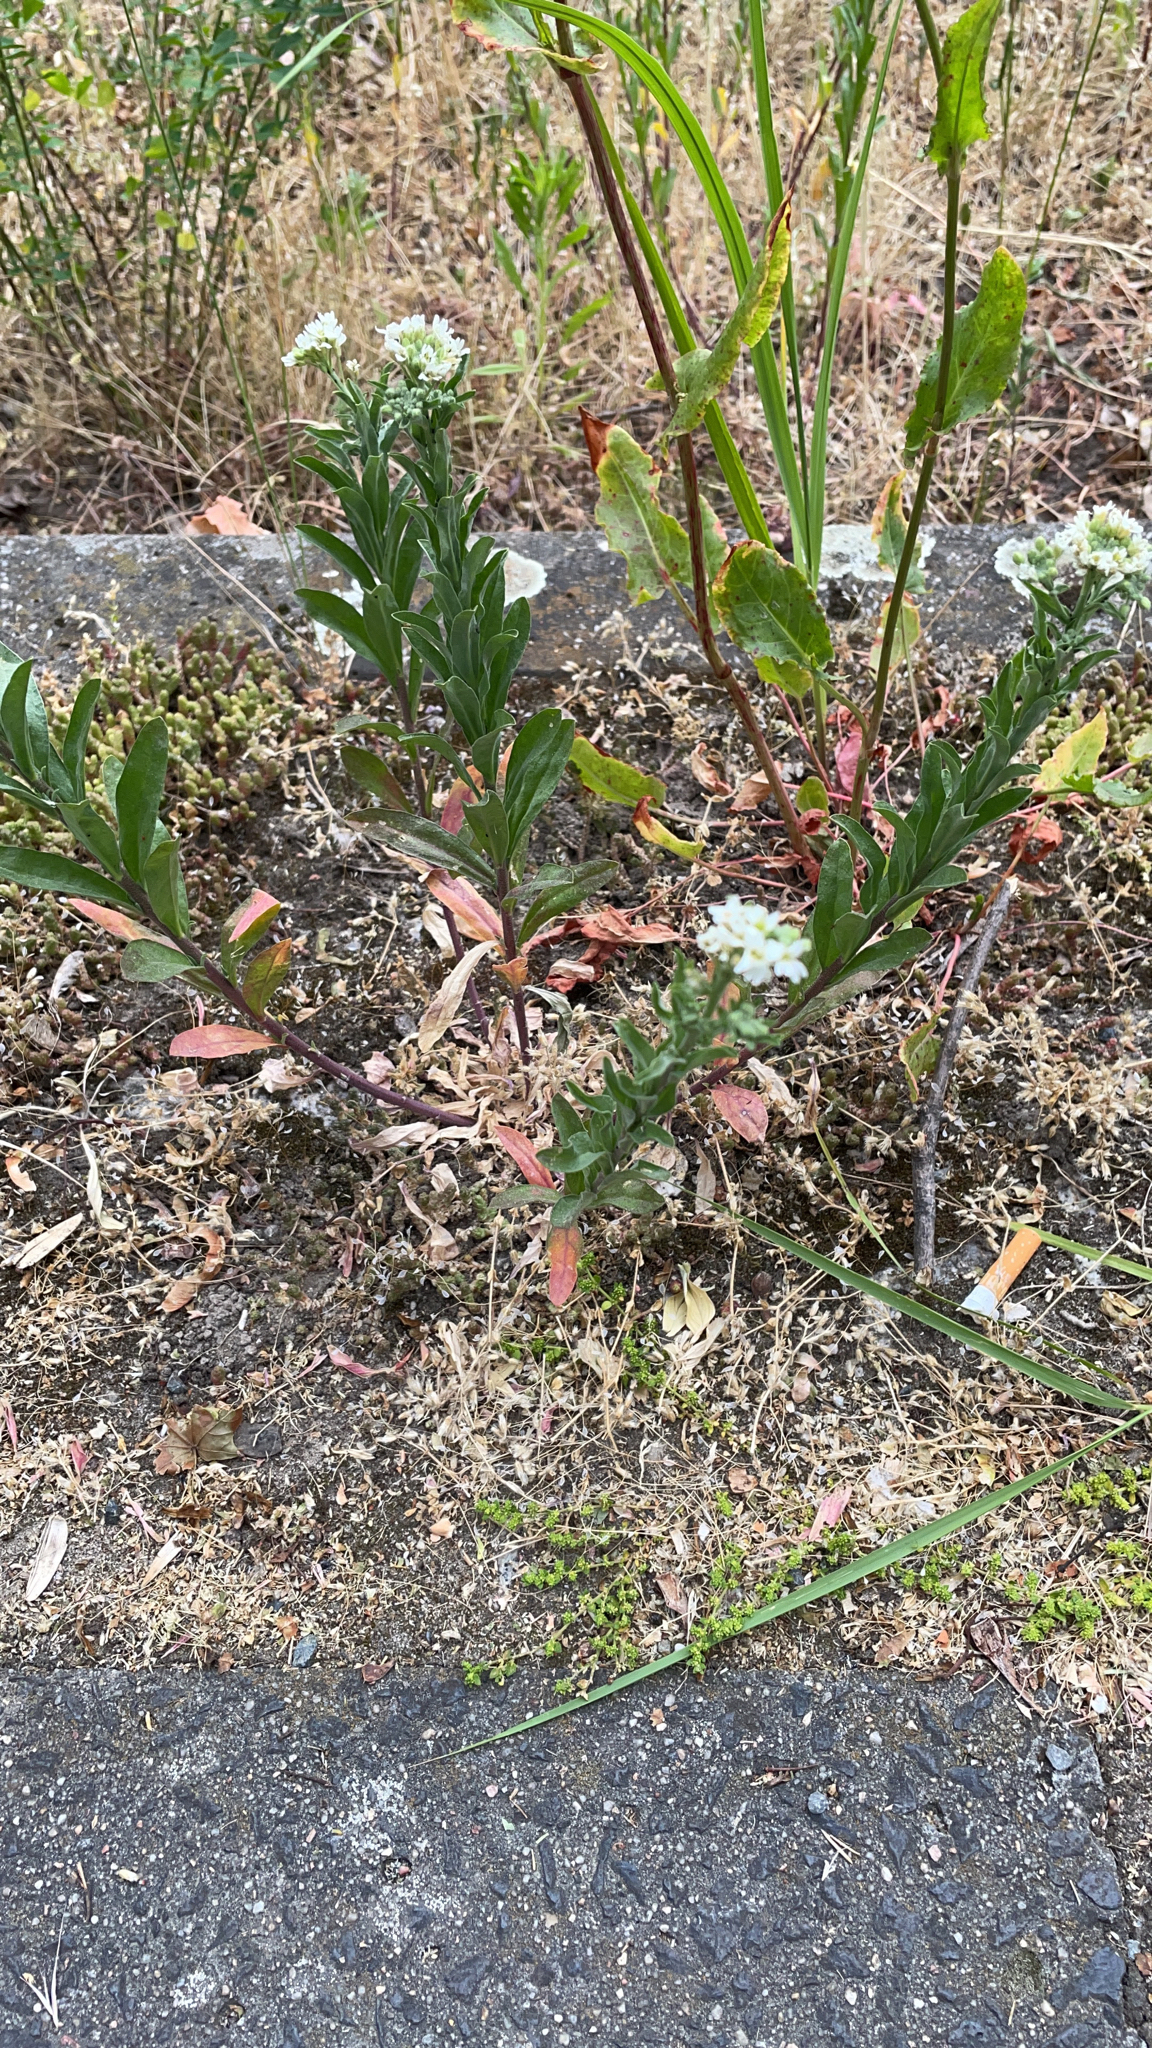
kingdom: Plantae
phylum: Tracheophyta
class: Magnoliopsida
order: Brassicales
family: Brassicaceae
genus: Berteroa
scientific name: Berteroa incana
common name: Hoary alison
